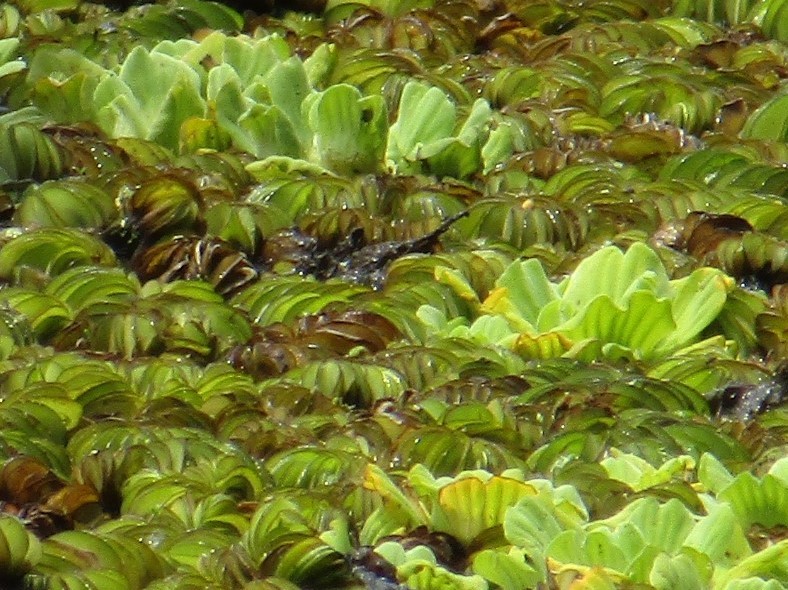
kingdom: Plantae
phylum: Tracheophyta
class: Liliopsida
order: Alismatales
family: Araceae
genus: Pistia
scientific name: Pistia stratiotes
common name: Water lettuce
